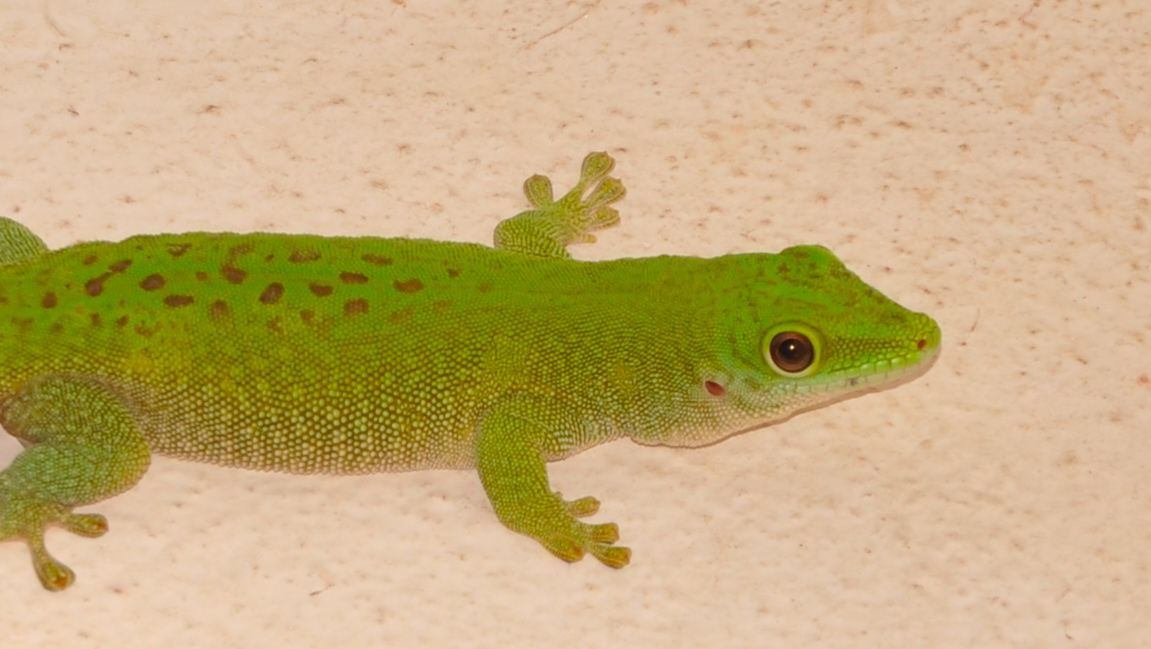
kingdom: Animalia
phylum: Chordata
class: Squamata
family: Gekkonidae
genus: Phelsuma
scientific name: Phelsuma kochi
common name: Madagascar day gecko
